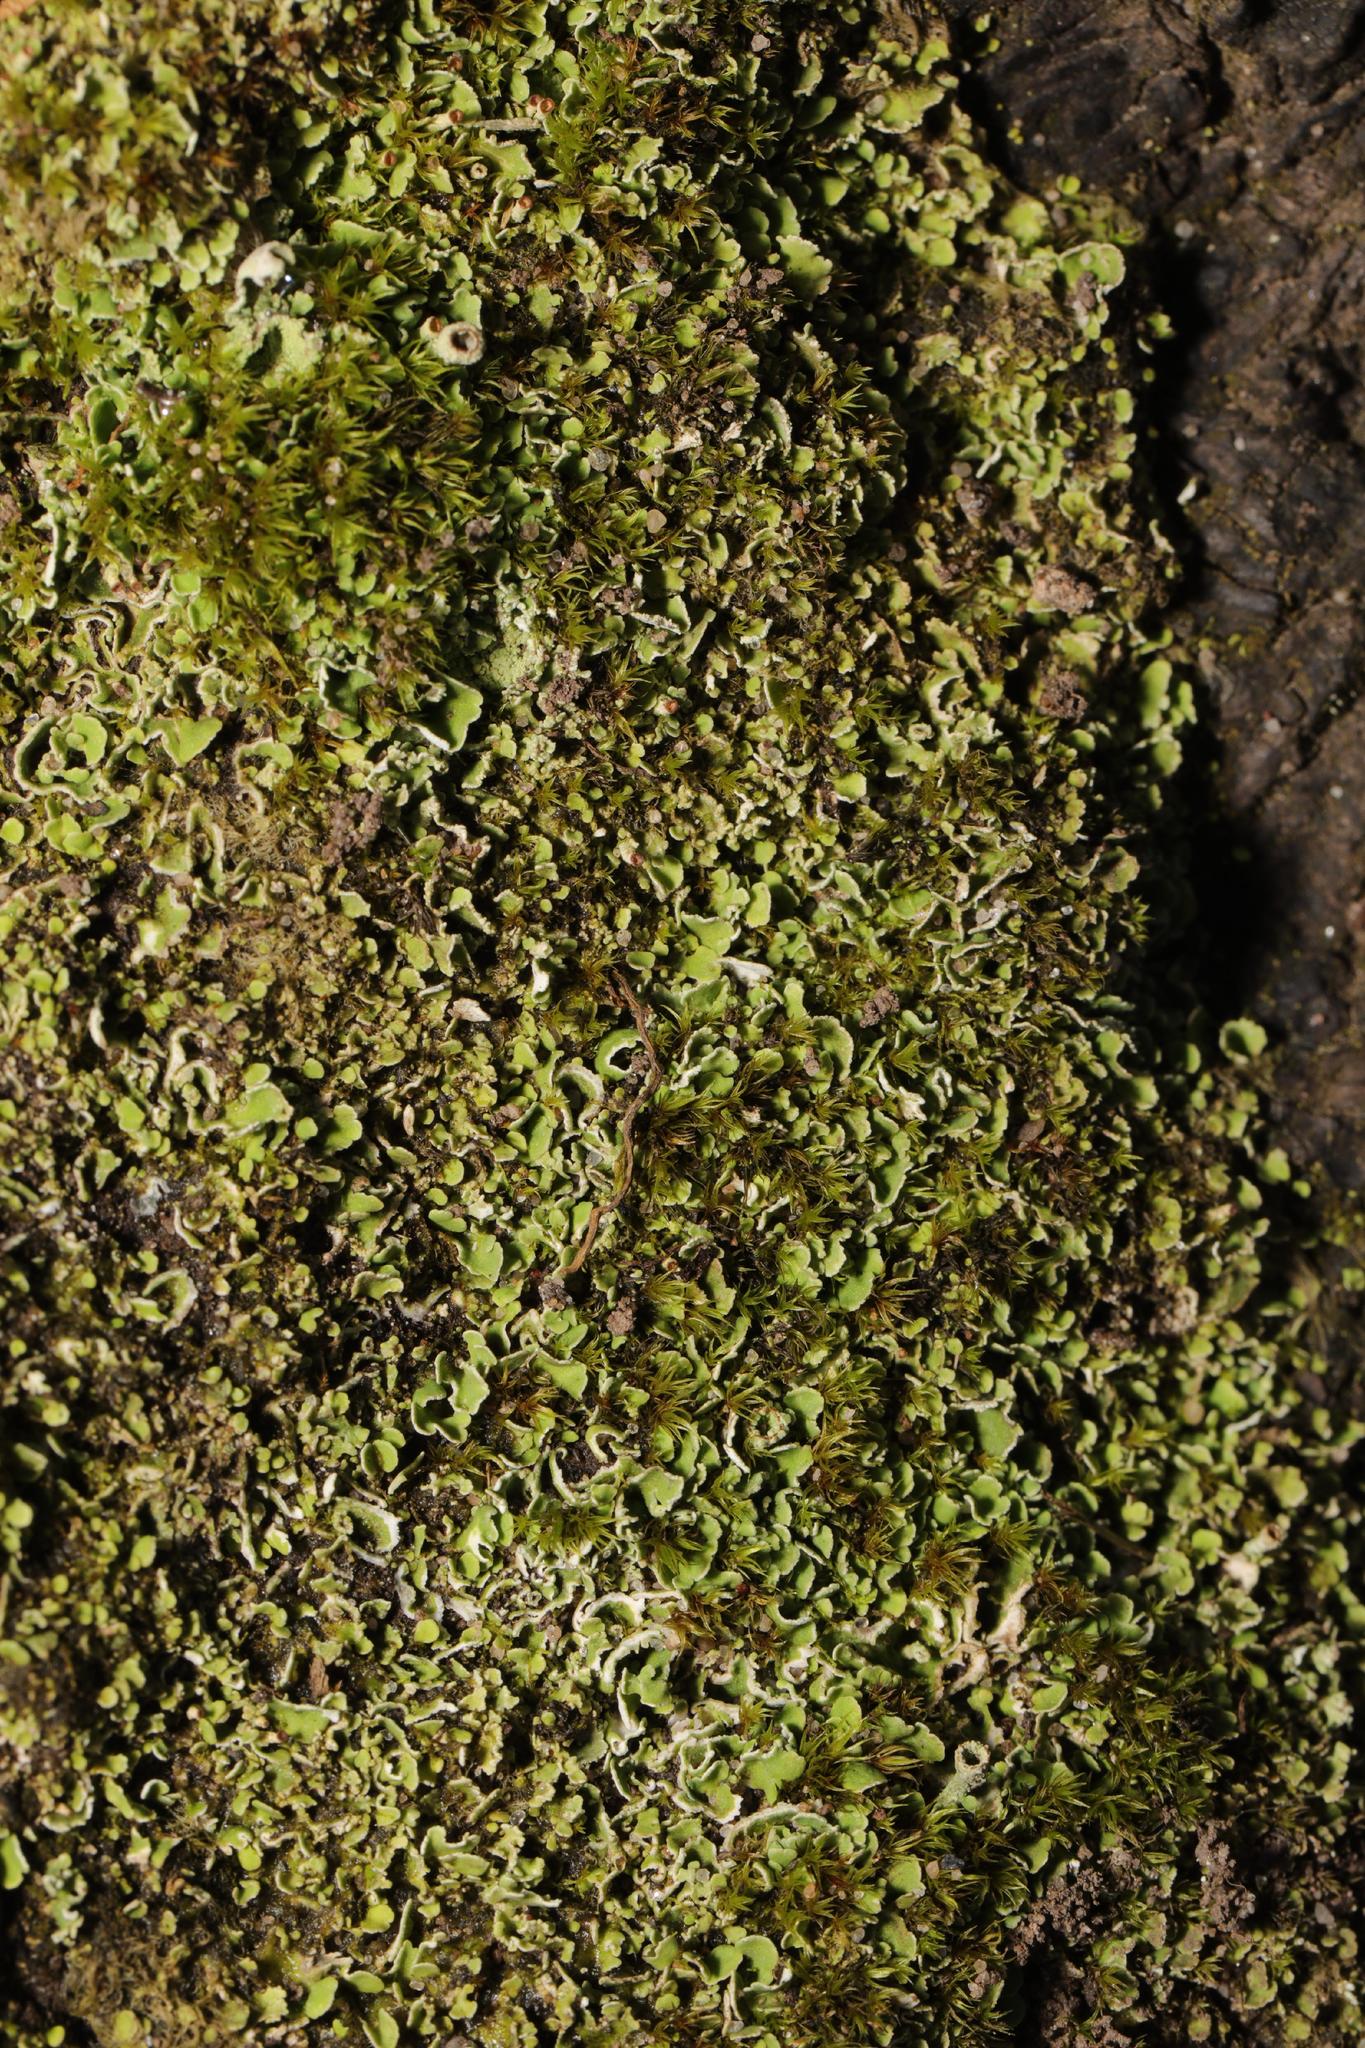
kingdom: Fungi
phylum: Ascomycota
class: Lecanoromycetes
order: Lecanorales
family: Cladoniaceae
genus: Cladonia
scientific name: Cladonia
